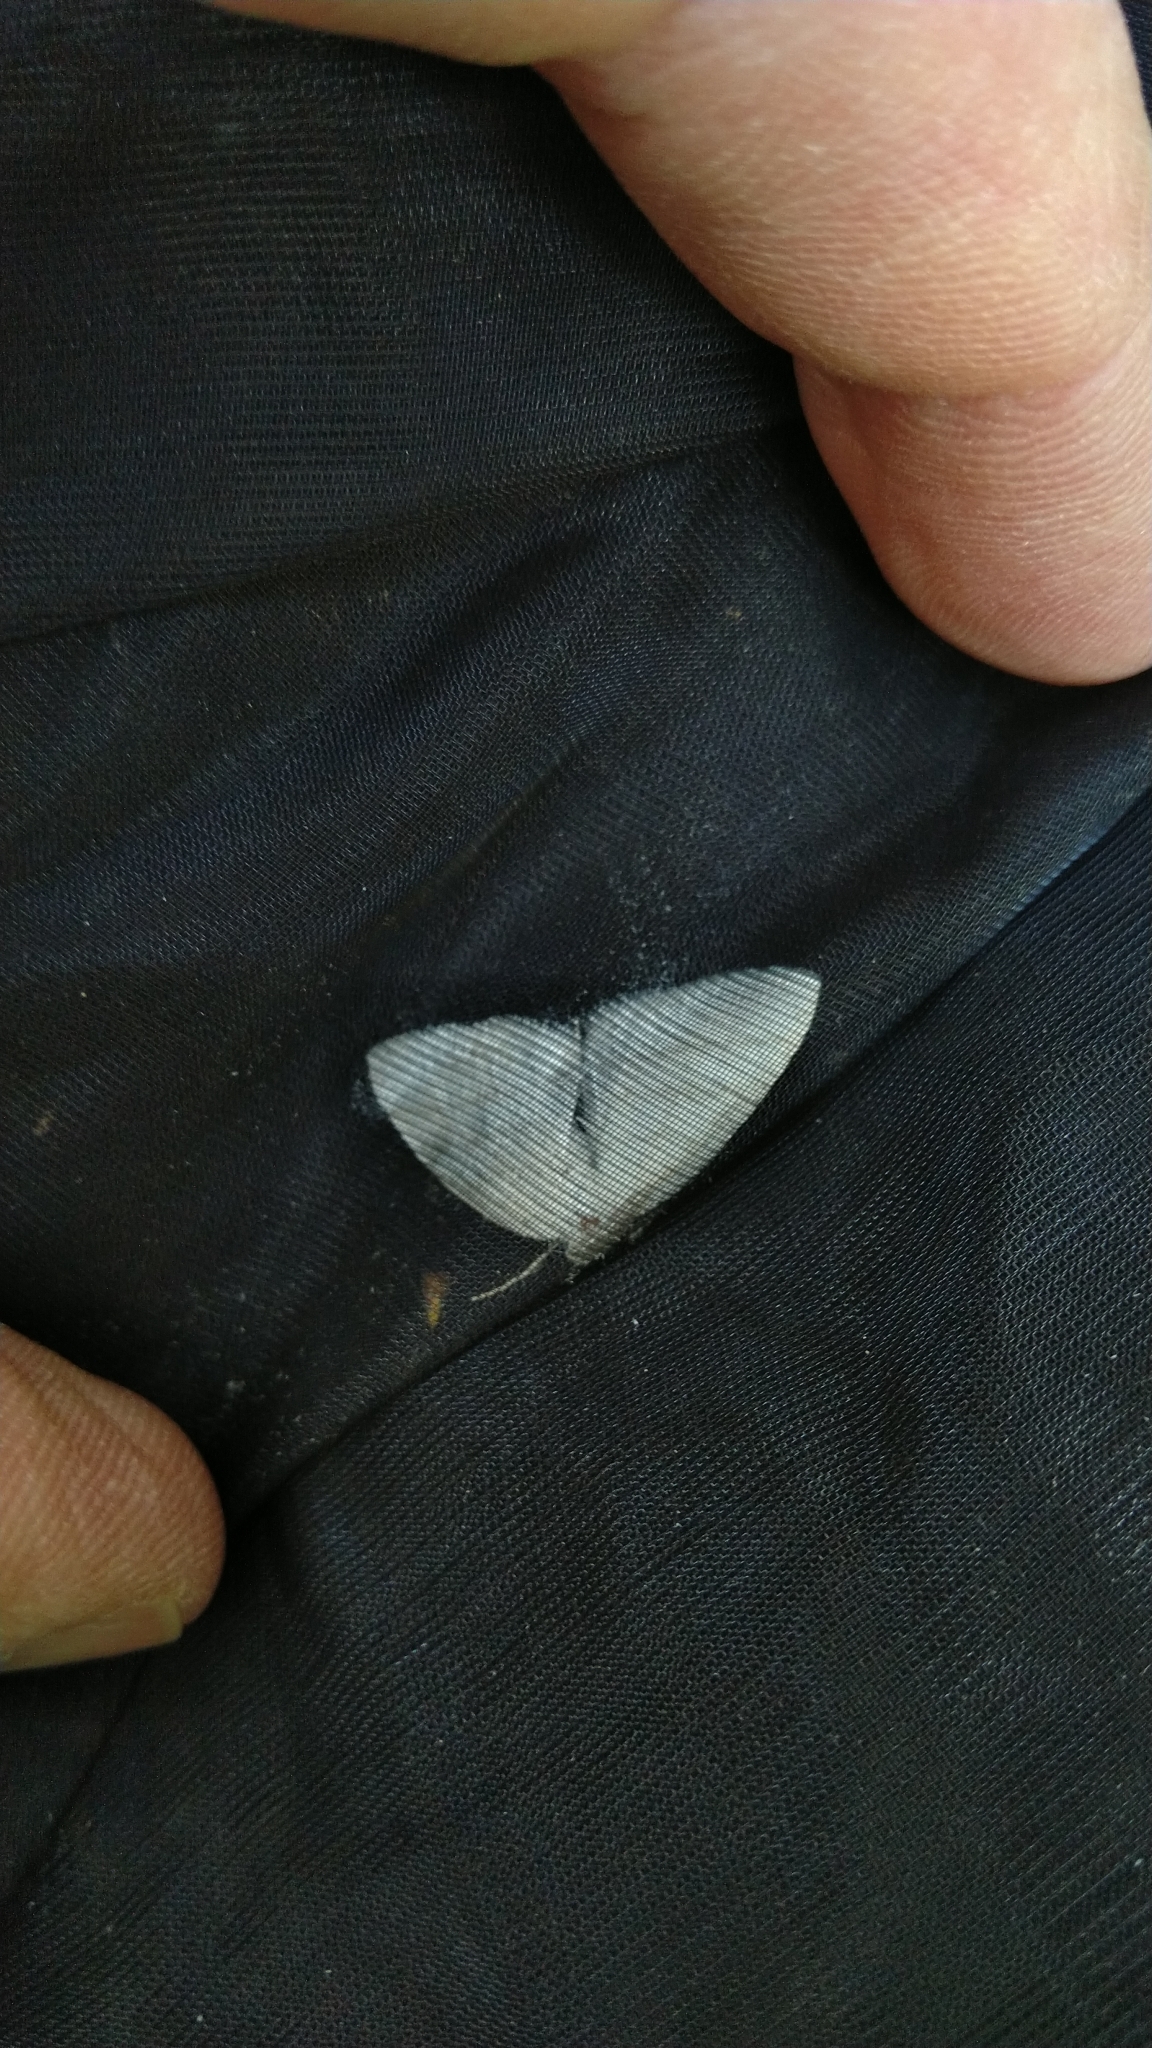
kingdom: Animalia
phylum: Arthropoda
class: Insecta
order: Lepidoptera
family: Geometridae
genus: Cabera
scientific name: Cabera pusaria
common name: Common white wave
